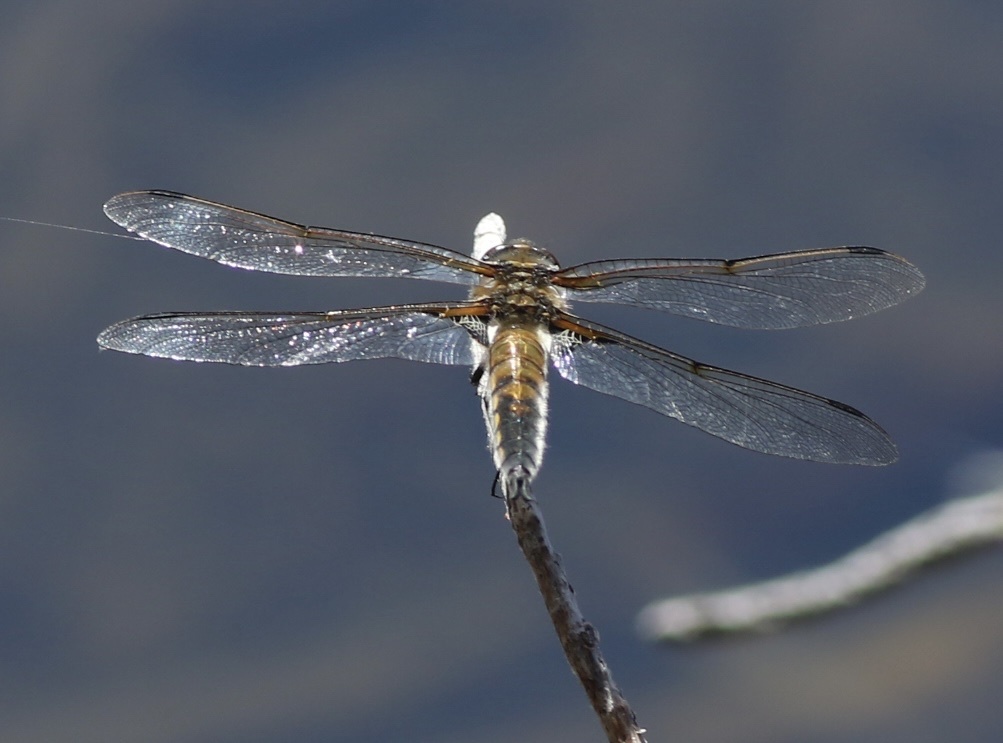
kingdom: Animalia
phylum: Arthropoda
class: Insecta
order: Odonata
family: Libellulidae
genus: Libellula
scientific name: Libellula quadrimaculata
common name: Four-spotted chaser
